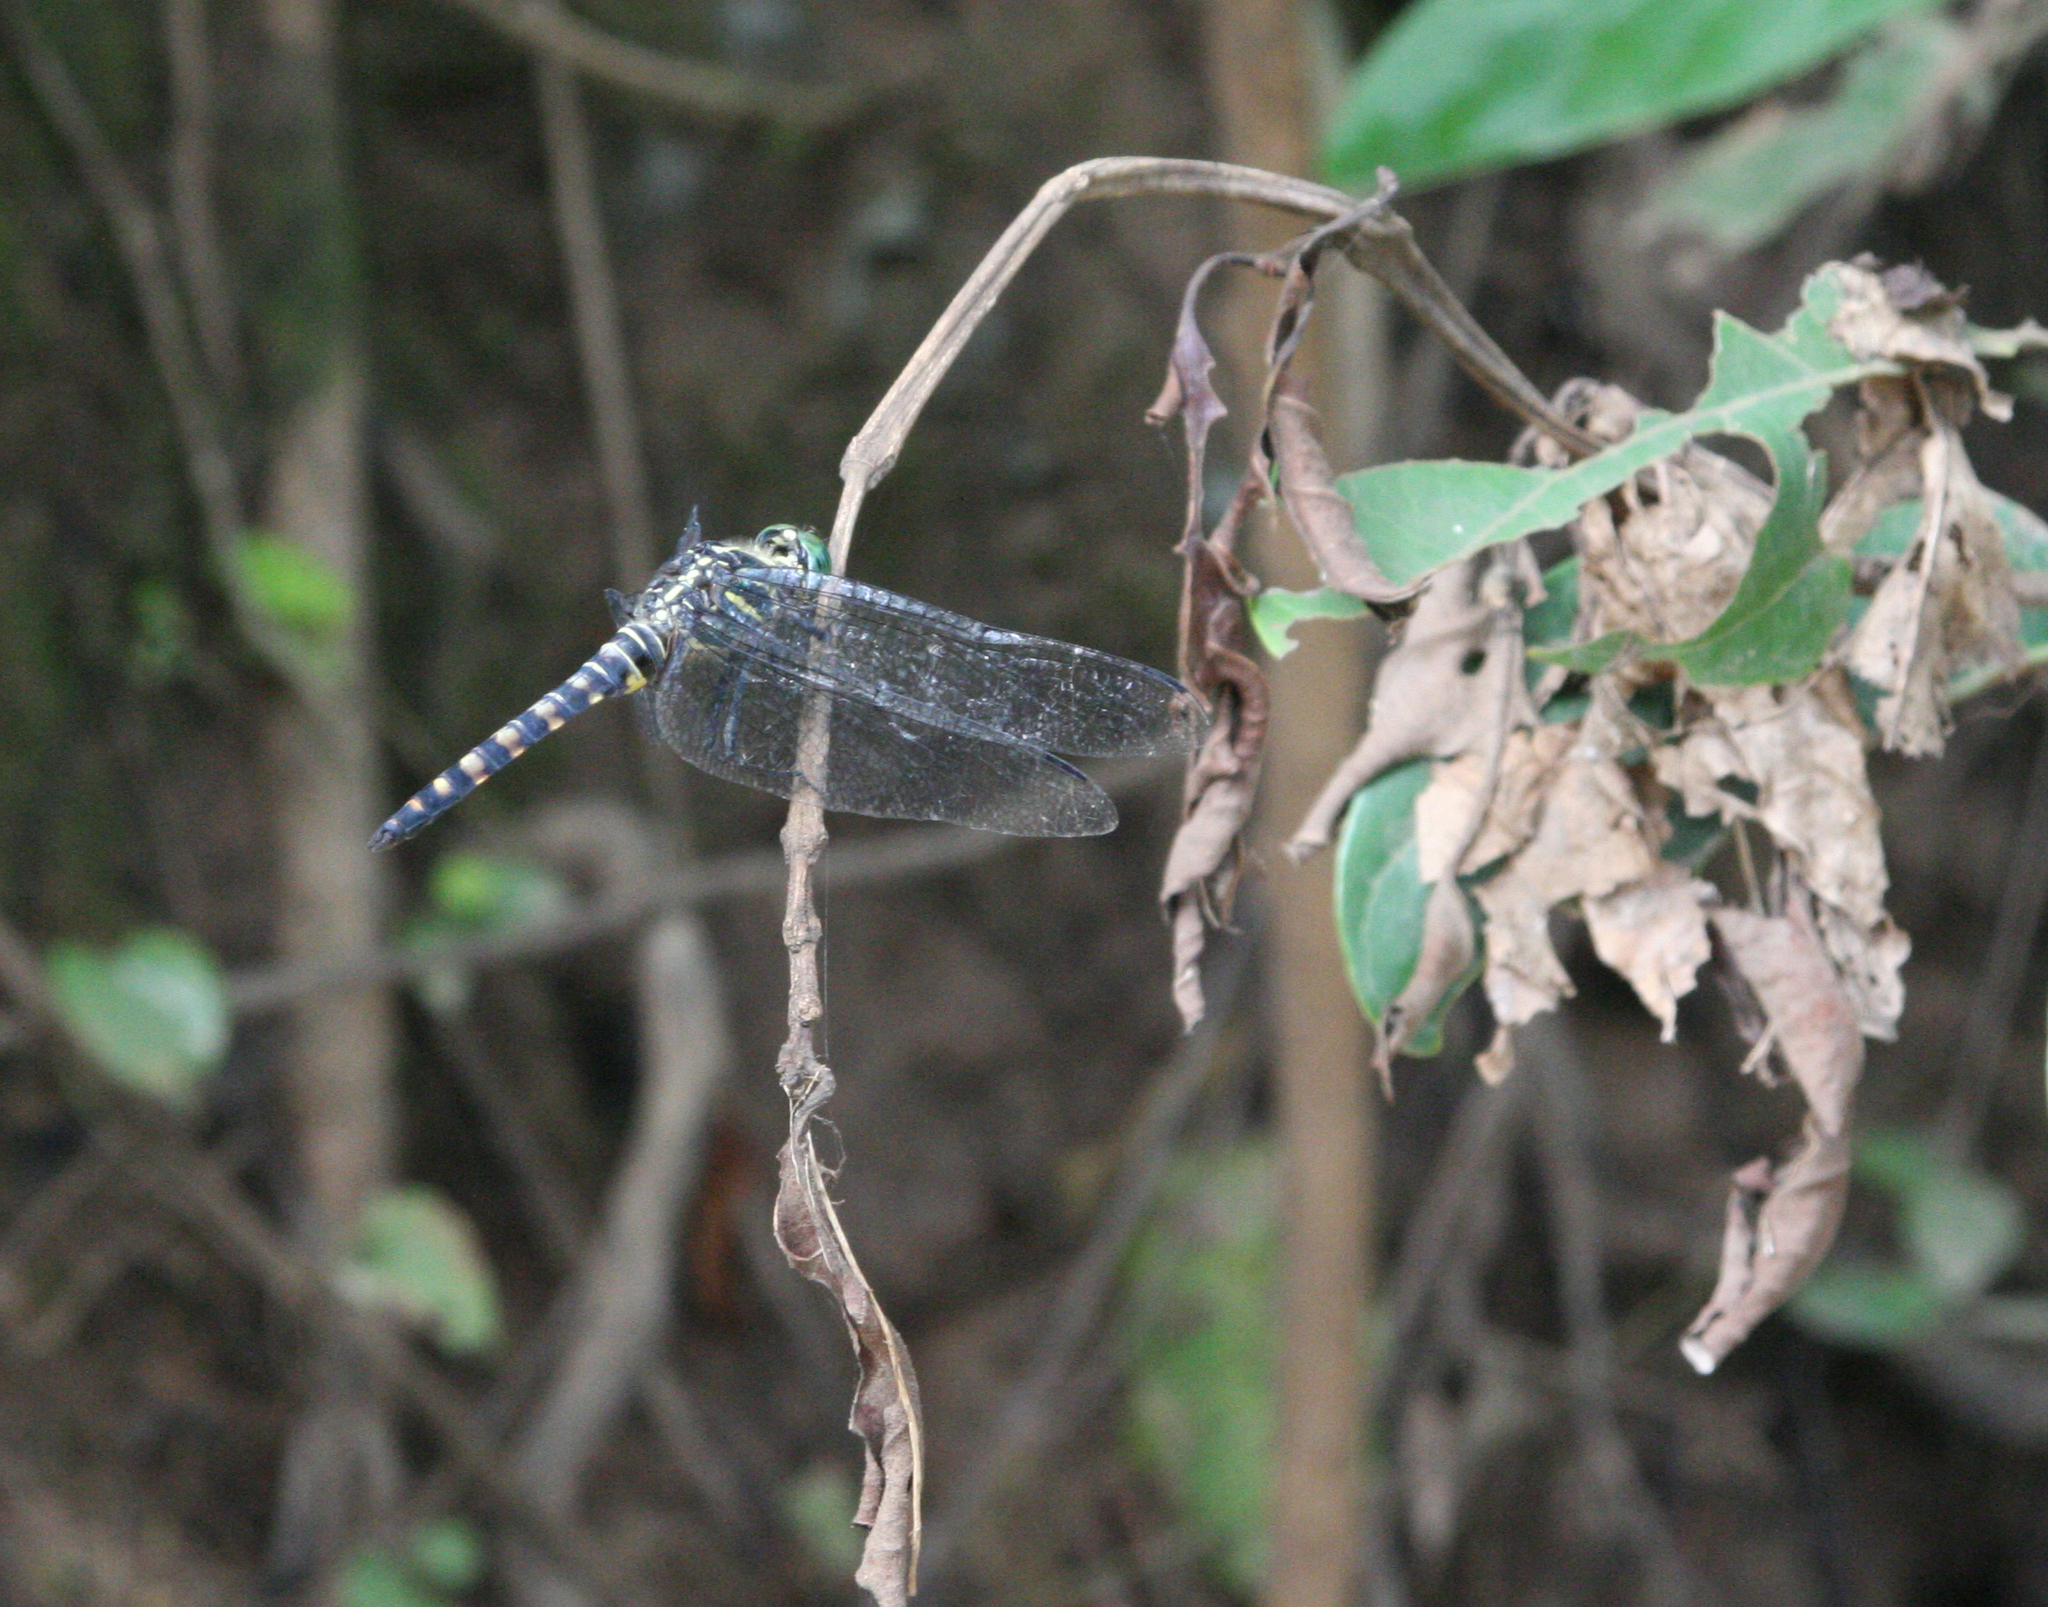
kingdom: Animalia
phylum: Arthropoda
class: Insecta
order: Odonata
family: Libellulidae
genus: Onychothemis
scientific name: Onychothemis testacea
